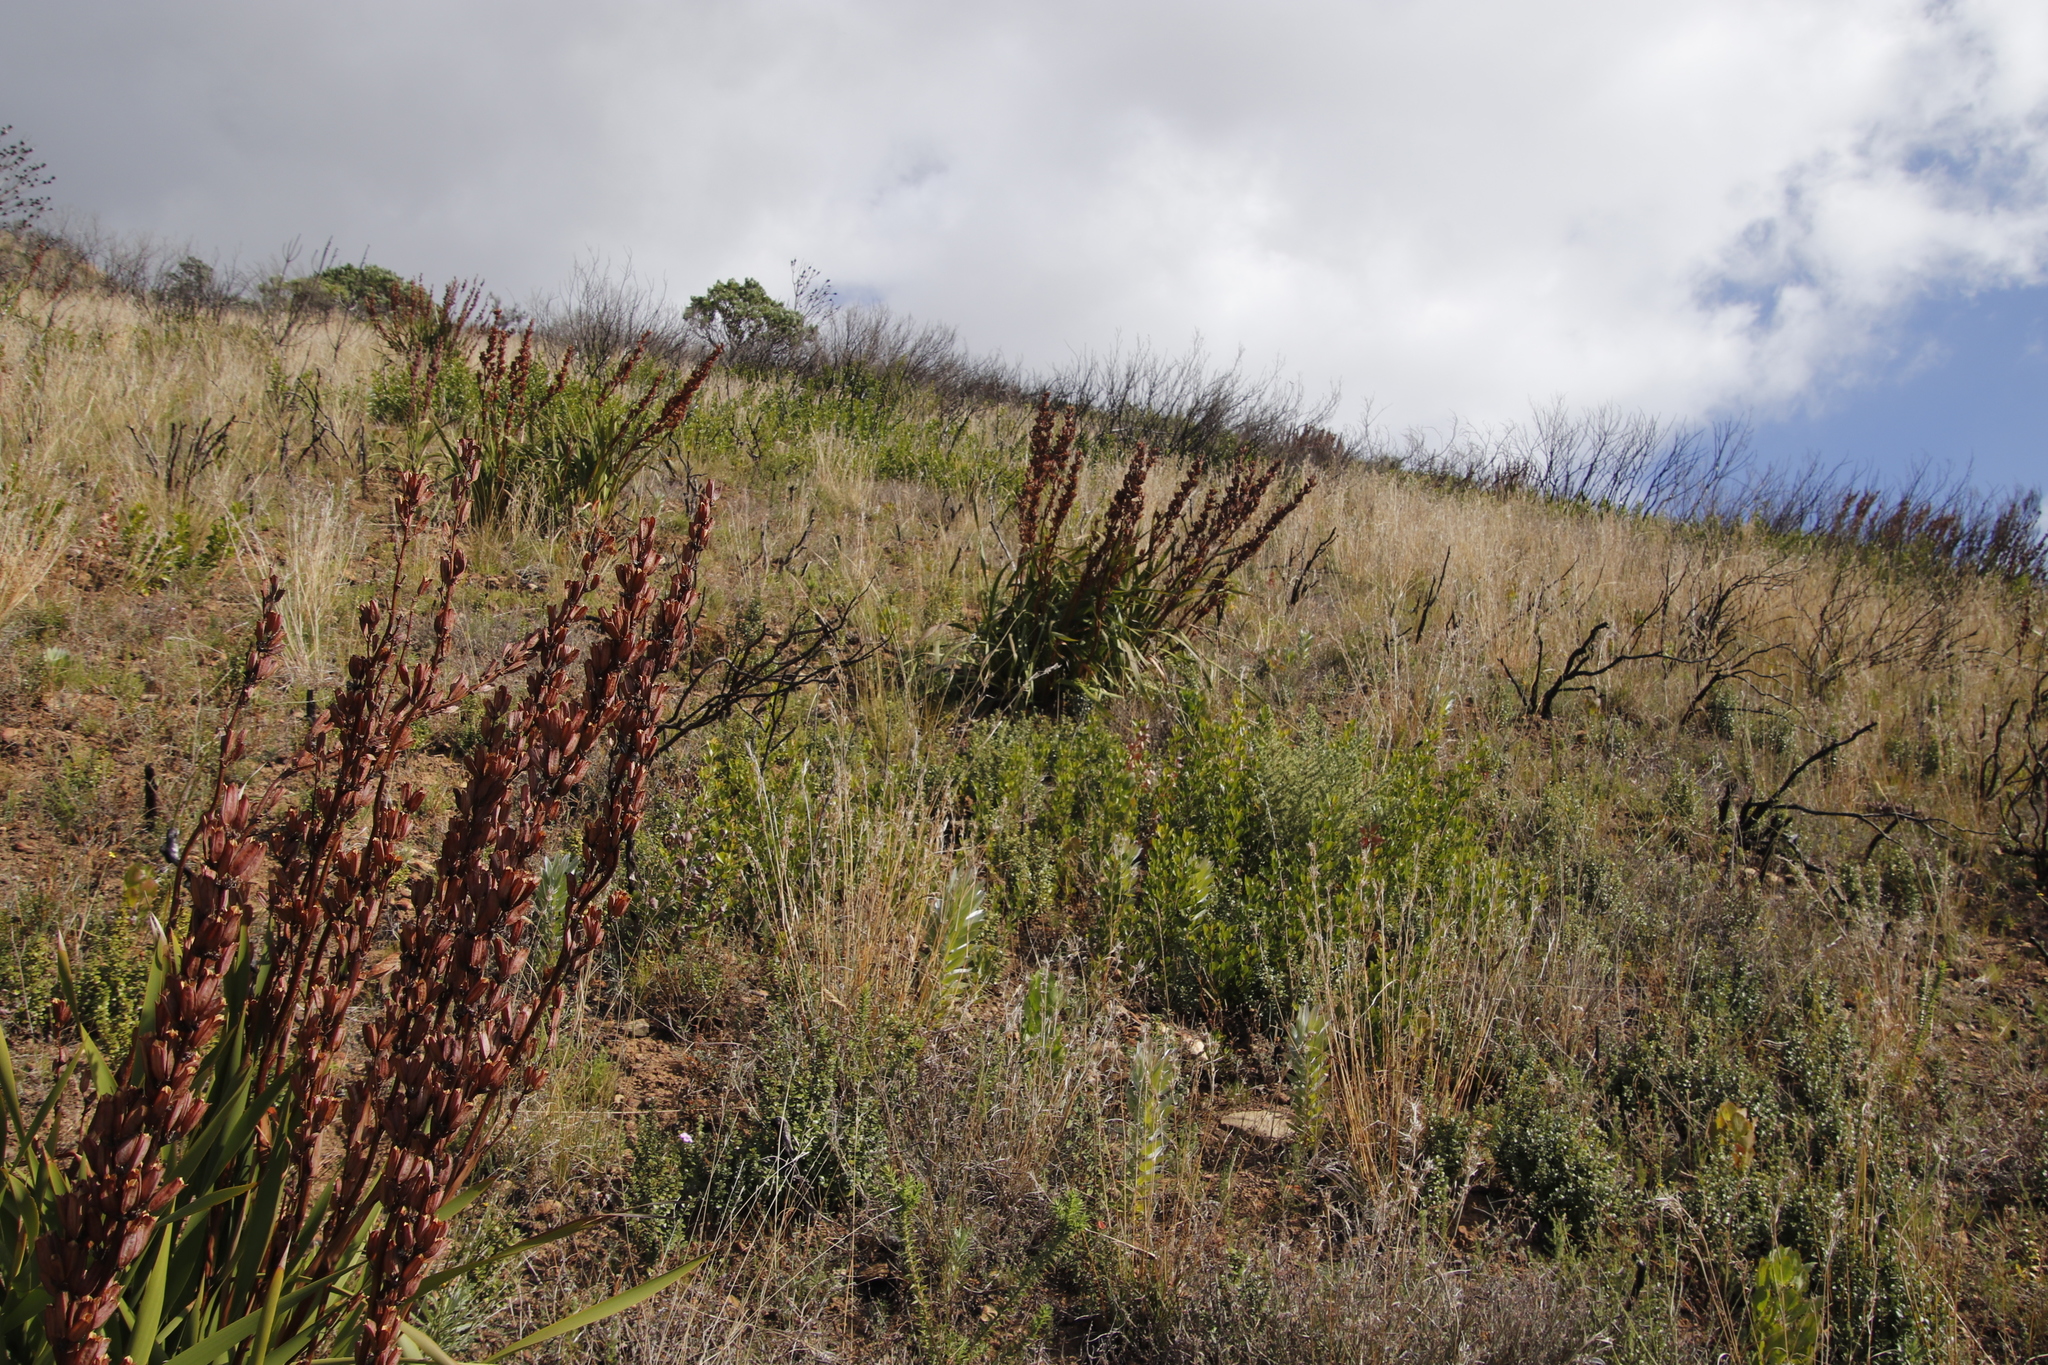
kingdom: Plantae
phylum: Tracheophyta
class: Liliopsida
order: Asparagales
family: Iridaceae
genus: Aristea
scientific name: Aristea bakeri
